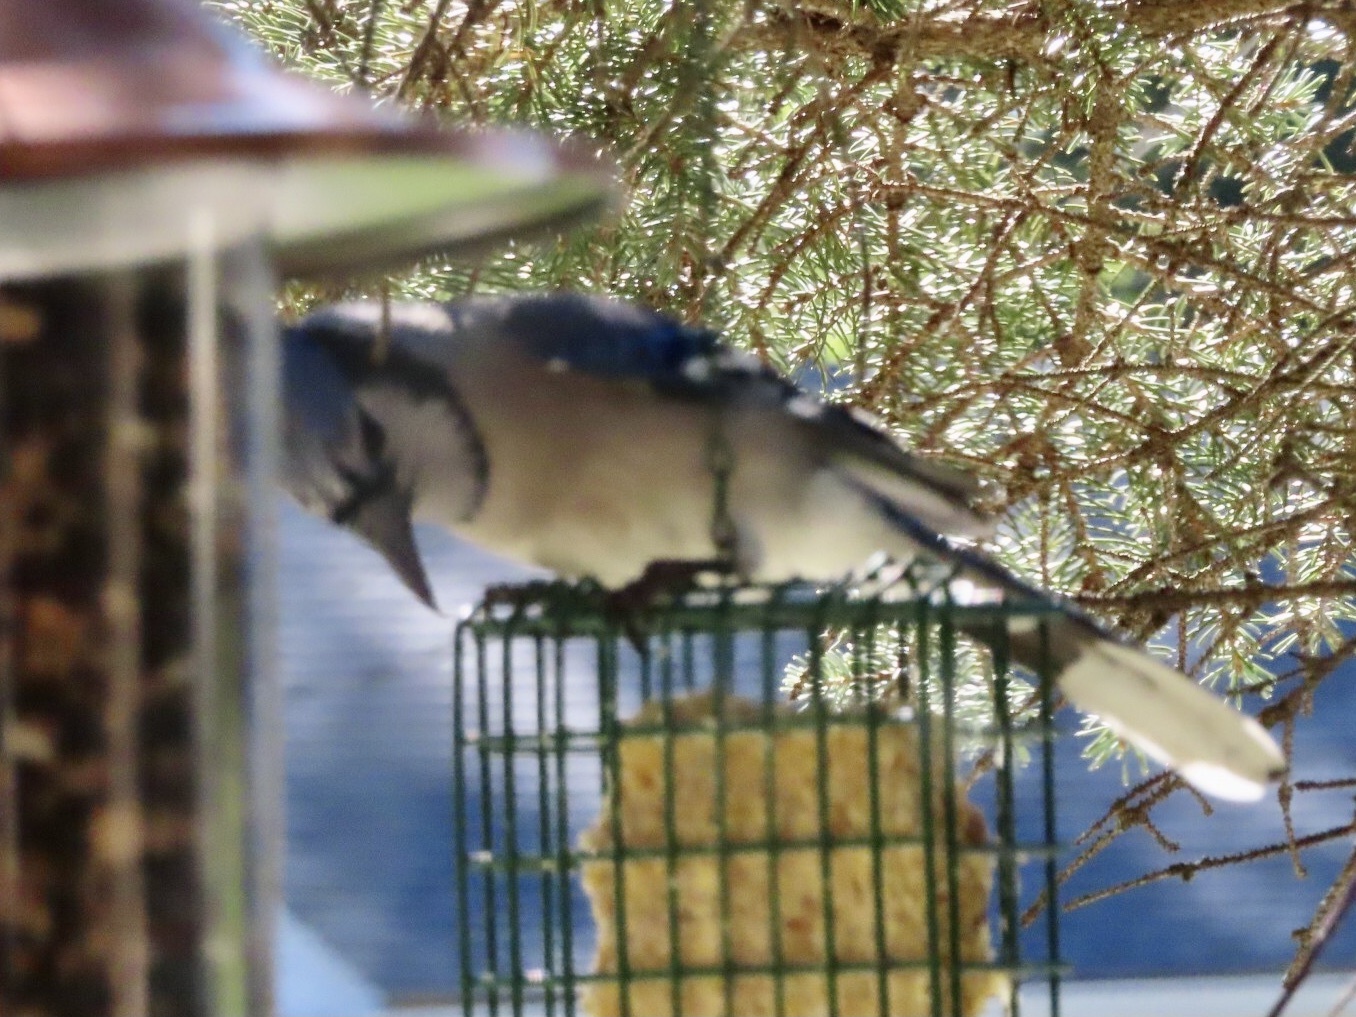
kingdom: Animalia
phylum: Chordata
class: Aves
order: Passeriformes
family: Corvidae
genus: Cyanocitta
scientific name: Cyanocitta cristata
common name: Blue jay
